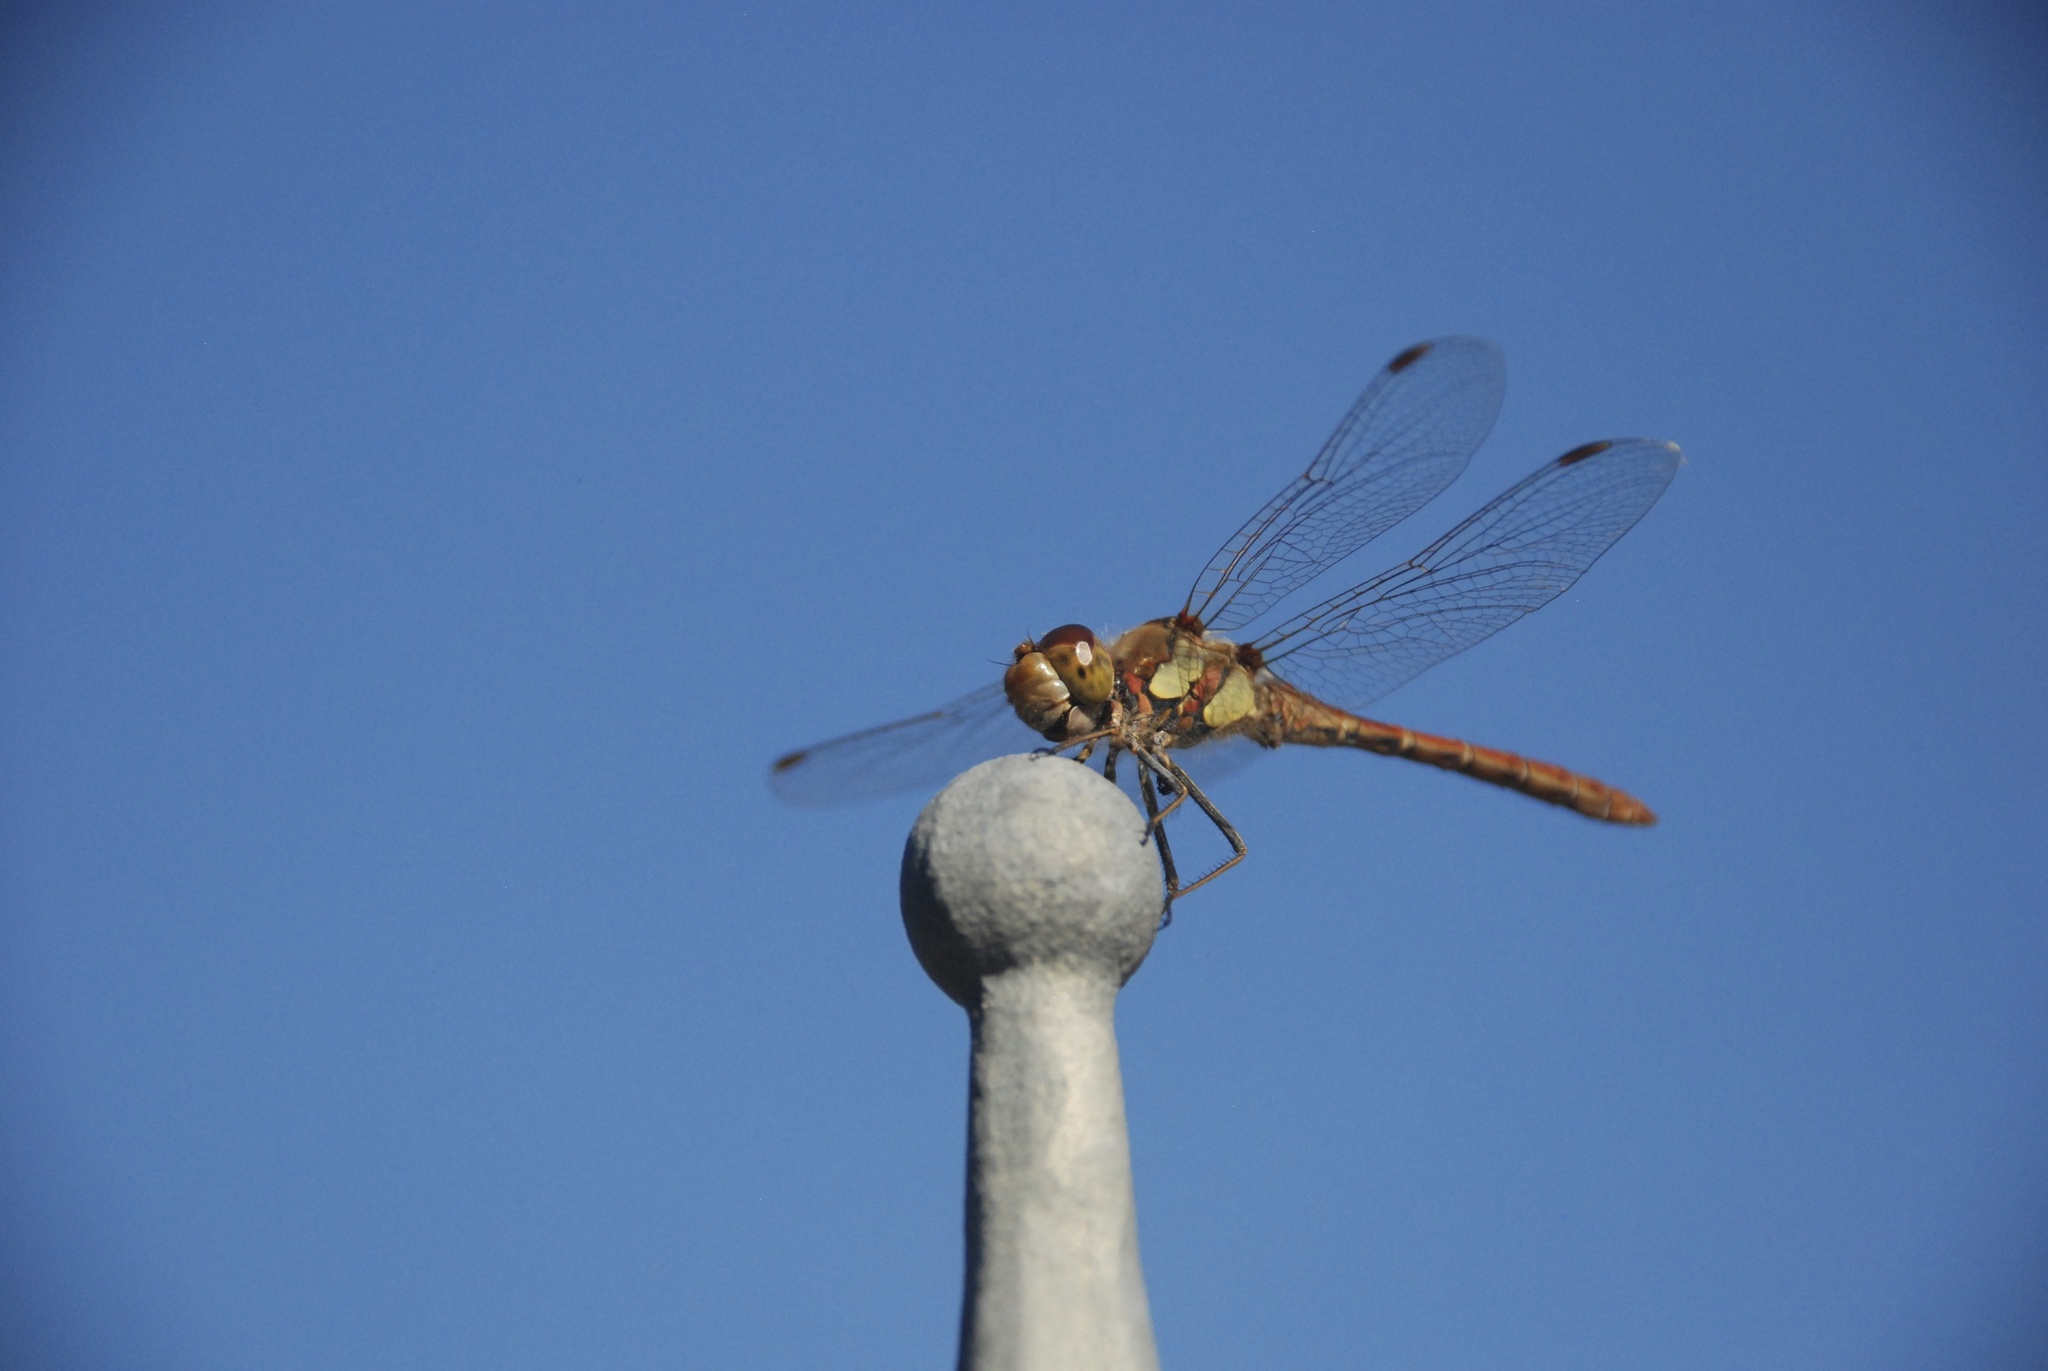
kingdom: Animalia
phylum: Arthropoda
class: Insecta
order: Odonata
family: Libellulidae
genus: Sympetrum
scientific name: Sympetrum striolatum
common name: Common darter
